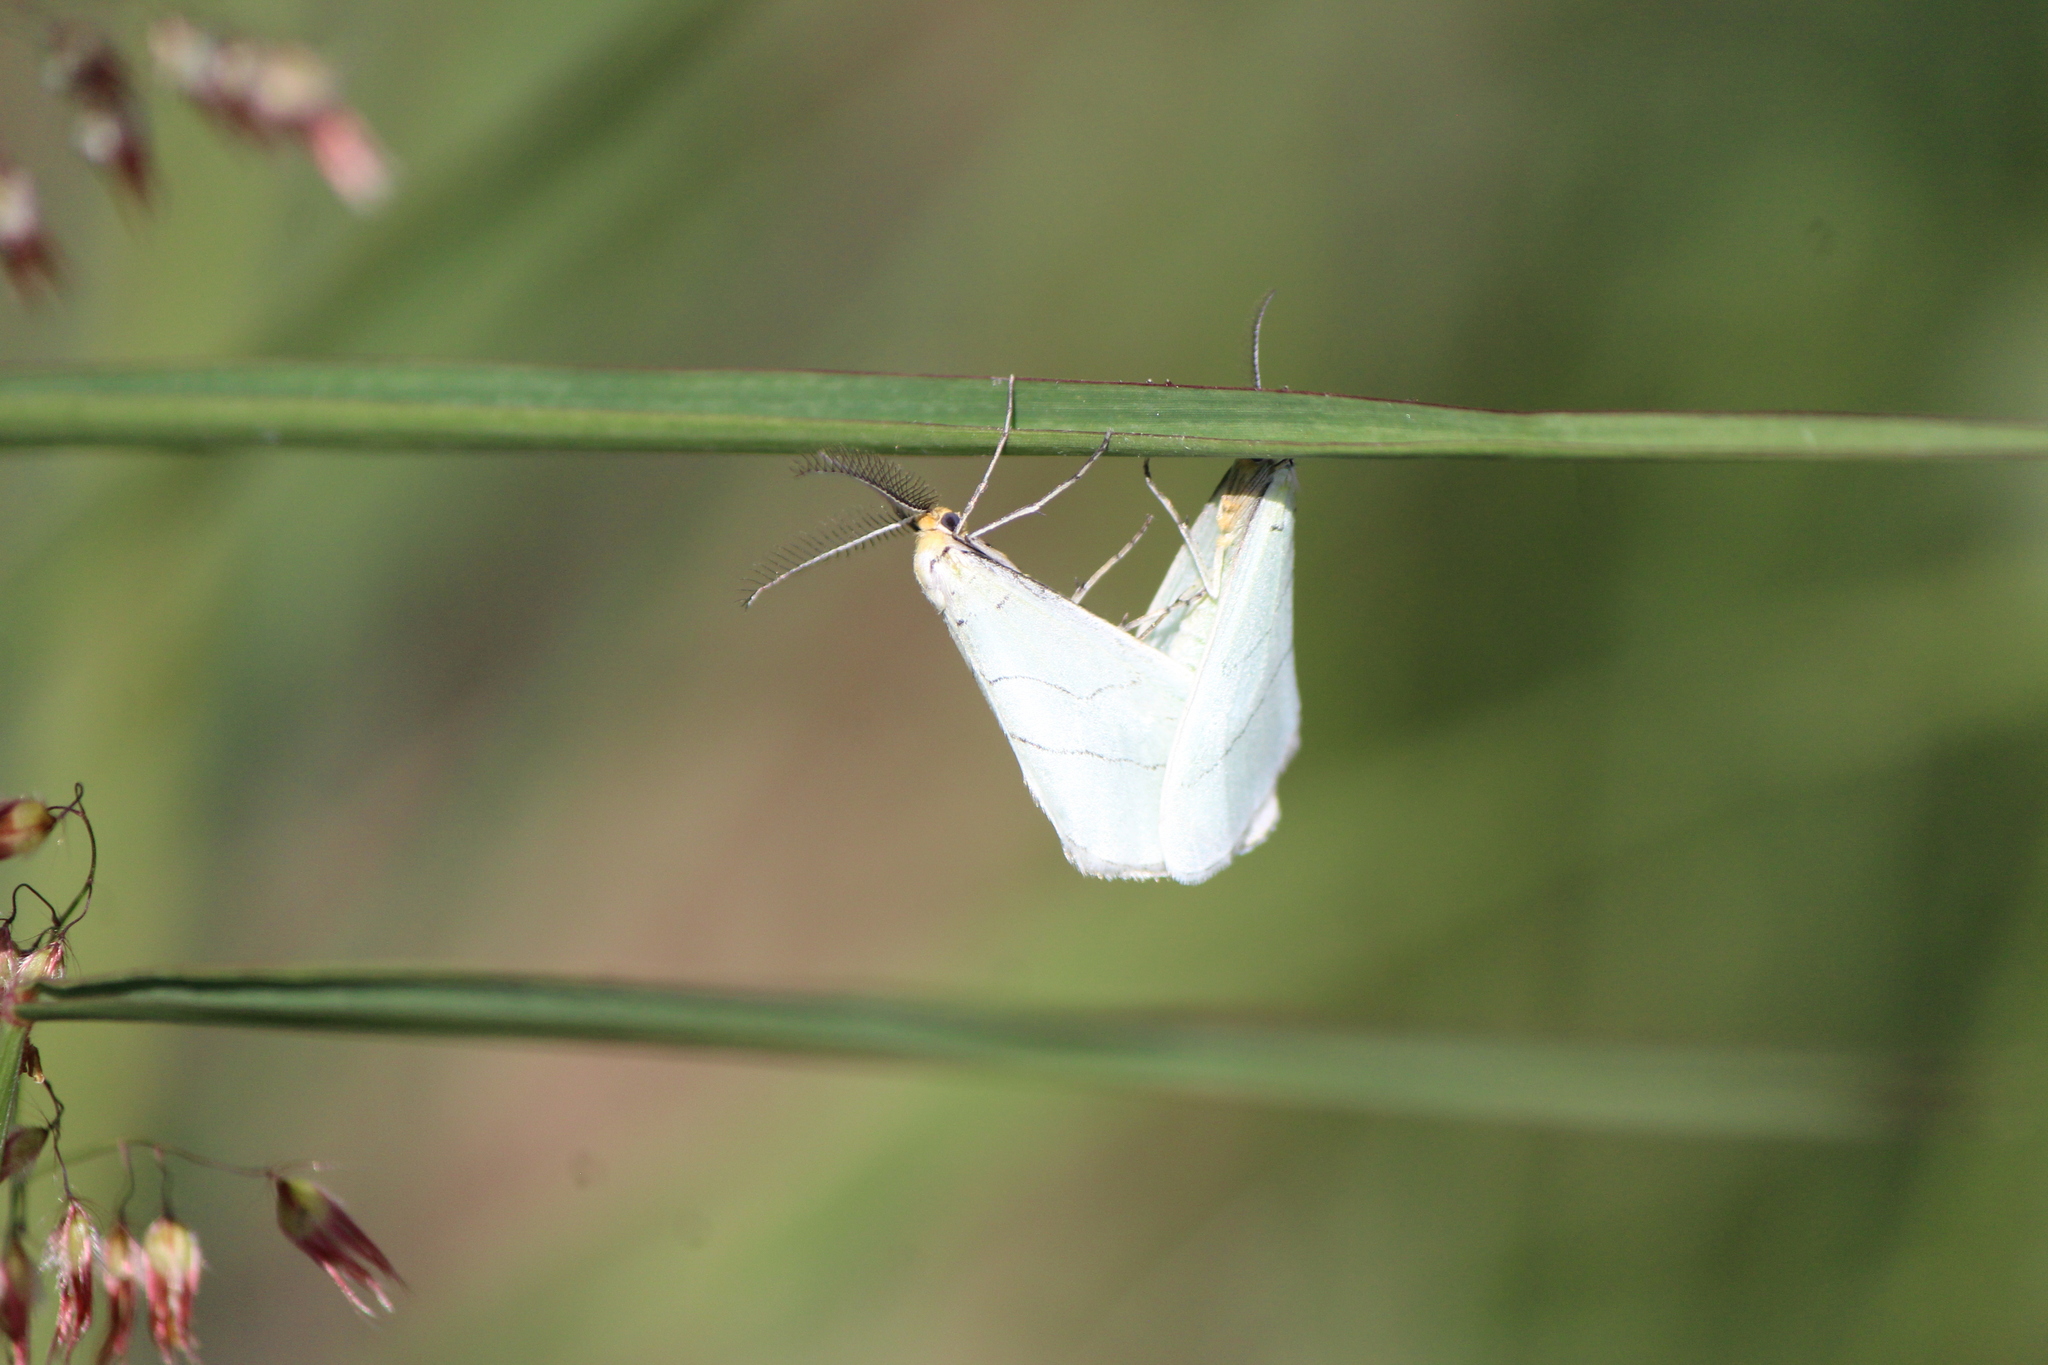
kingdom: Animalia
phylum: Arthropoda
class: Insecta
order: Lepidoptera
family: Doidae
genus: Leuculodes
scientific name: Leuculodes lacteolaria
